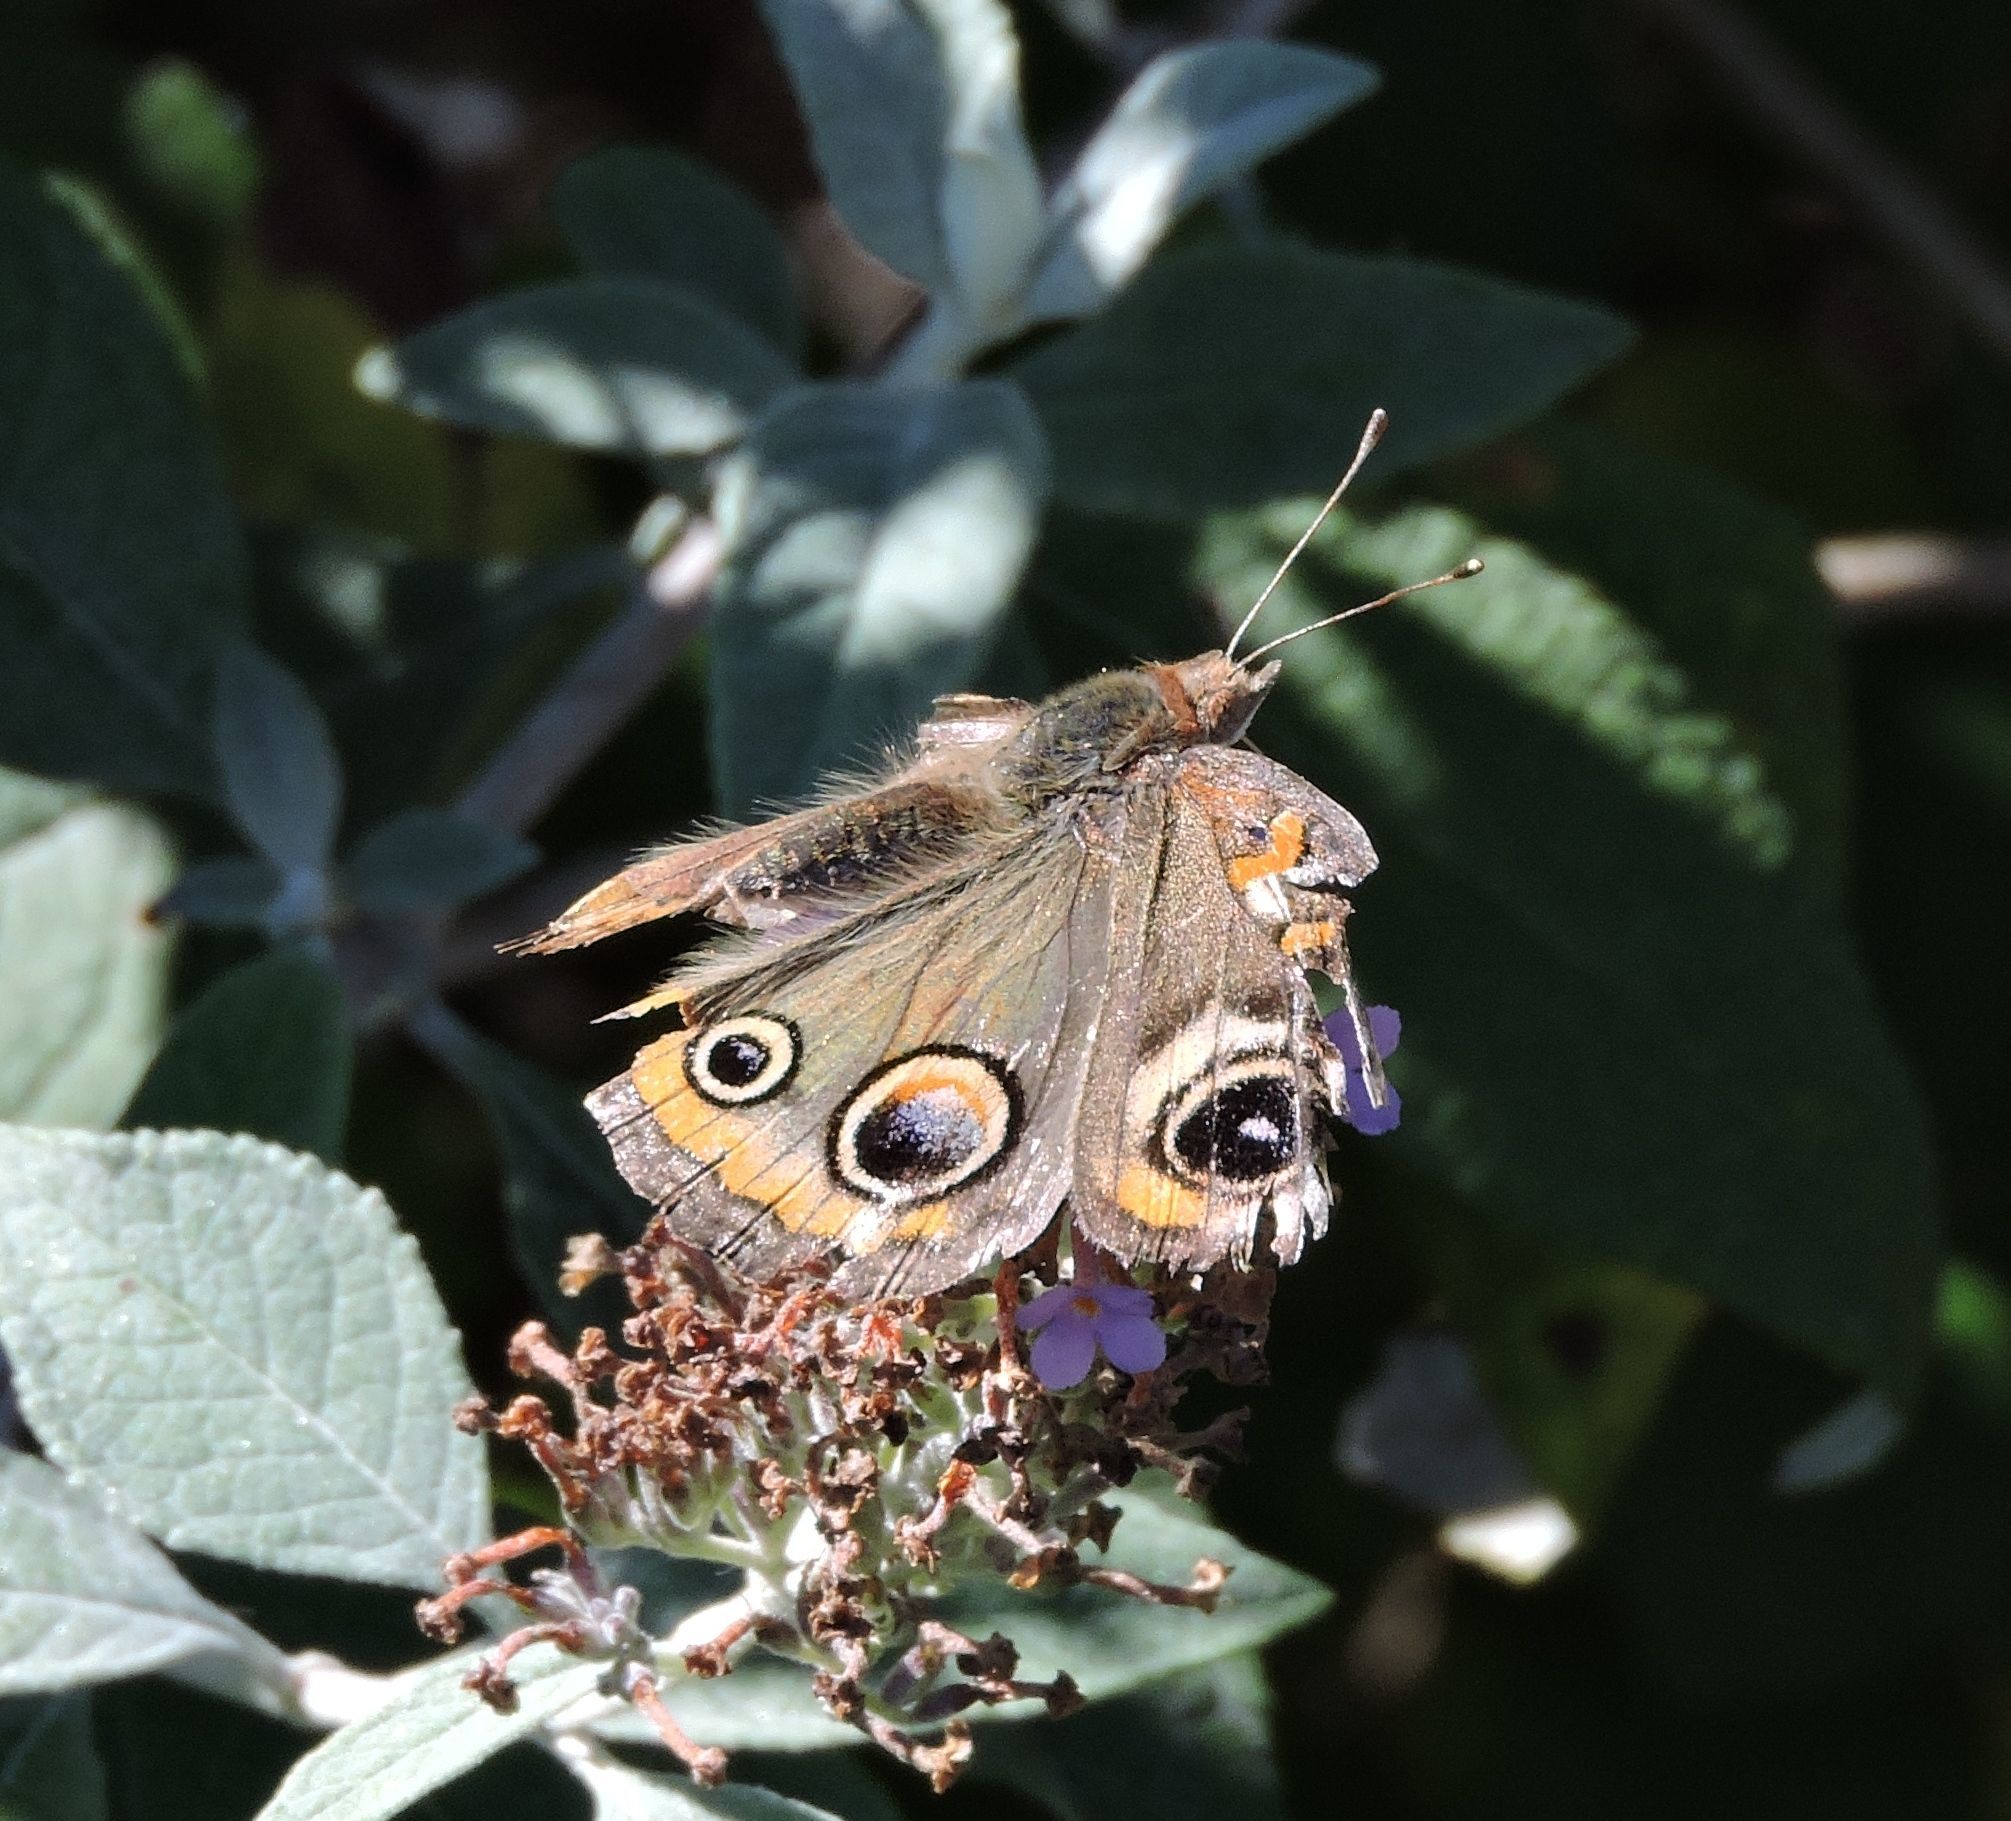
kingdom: Animalia
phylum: Arthropoda
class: Insecta
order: Lepidoptera
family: Nymphalidae
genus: Junonia
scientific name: Junonia coenia
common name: Common buckeye
